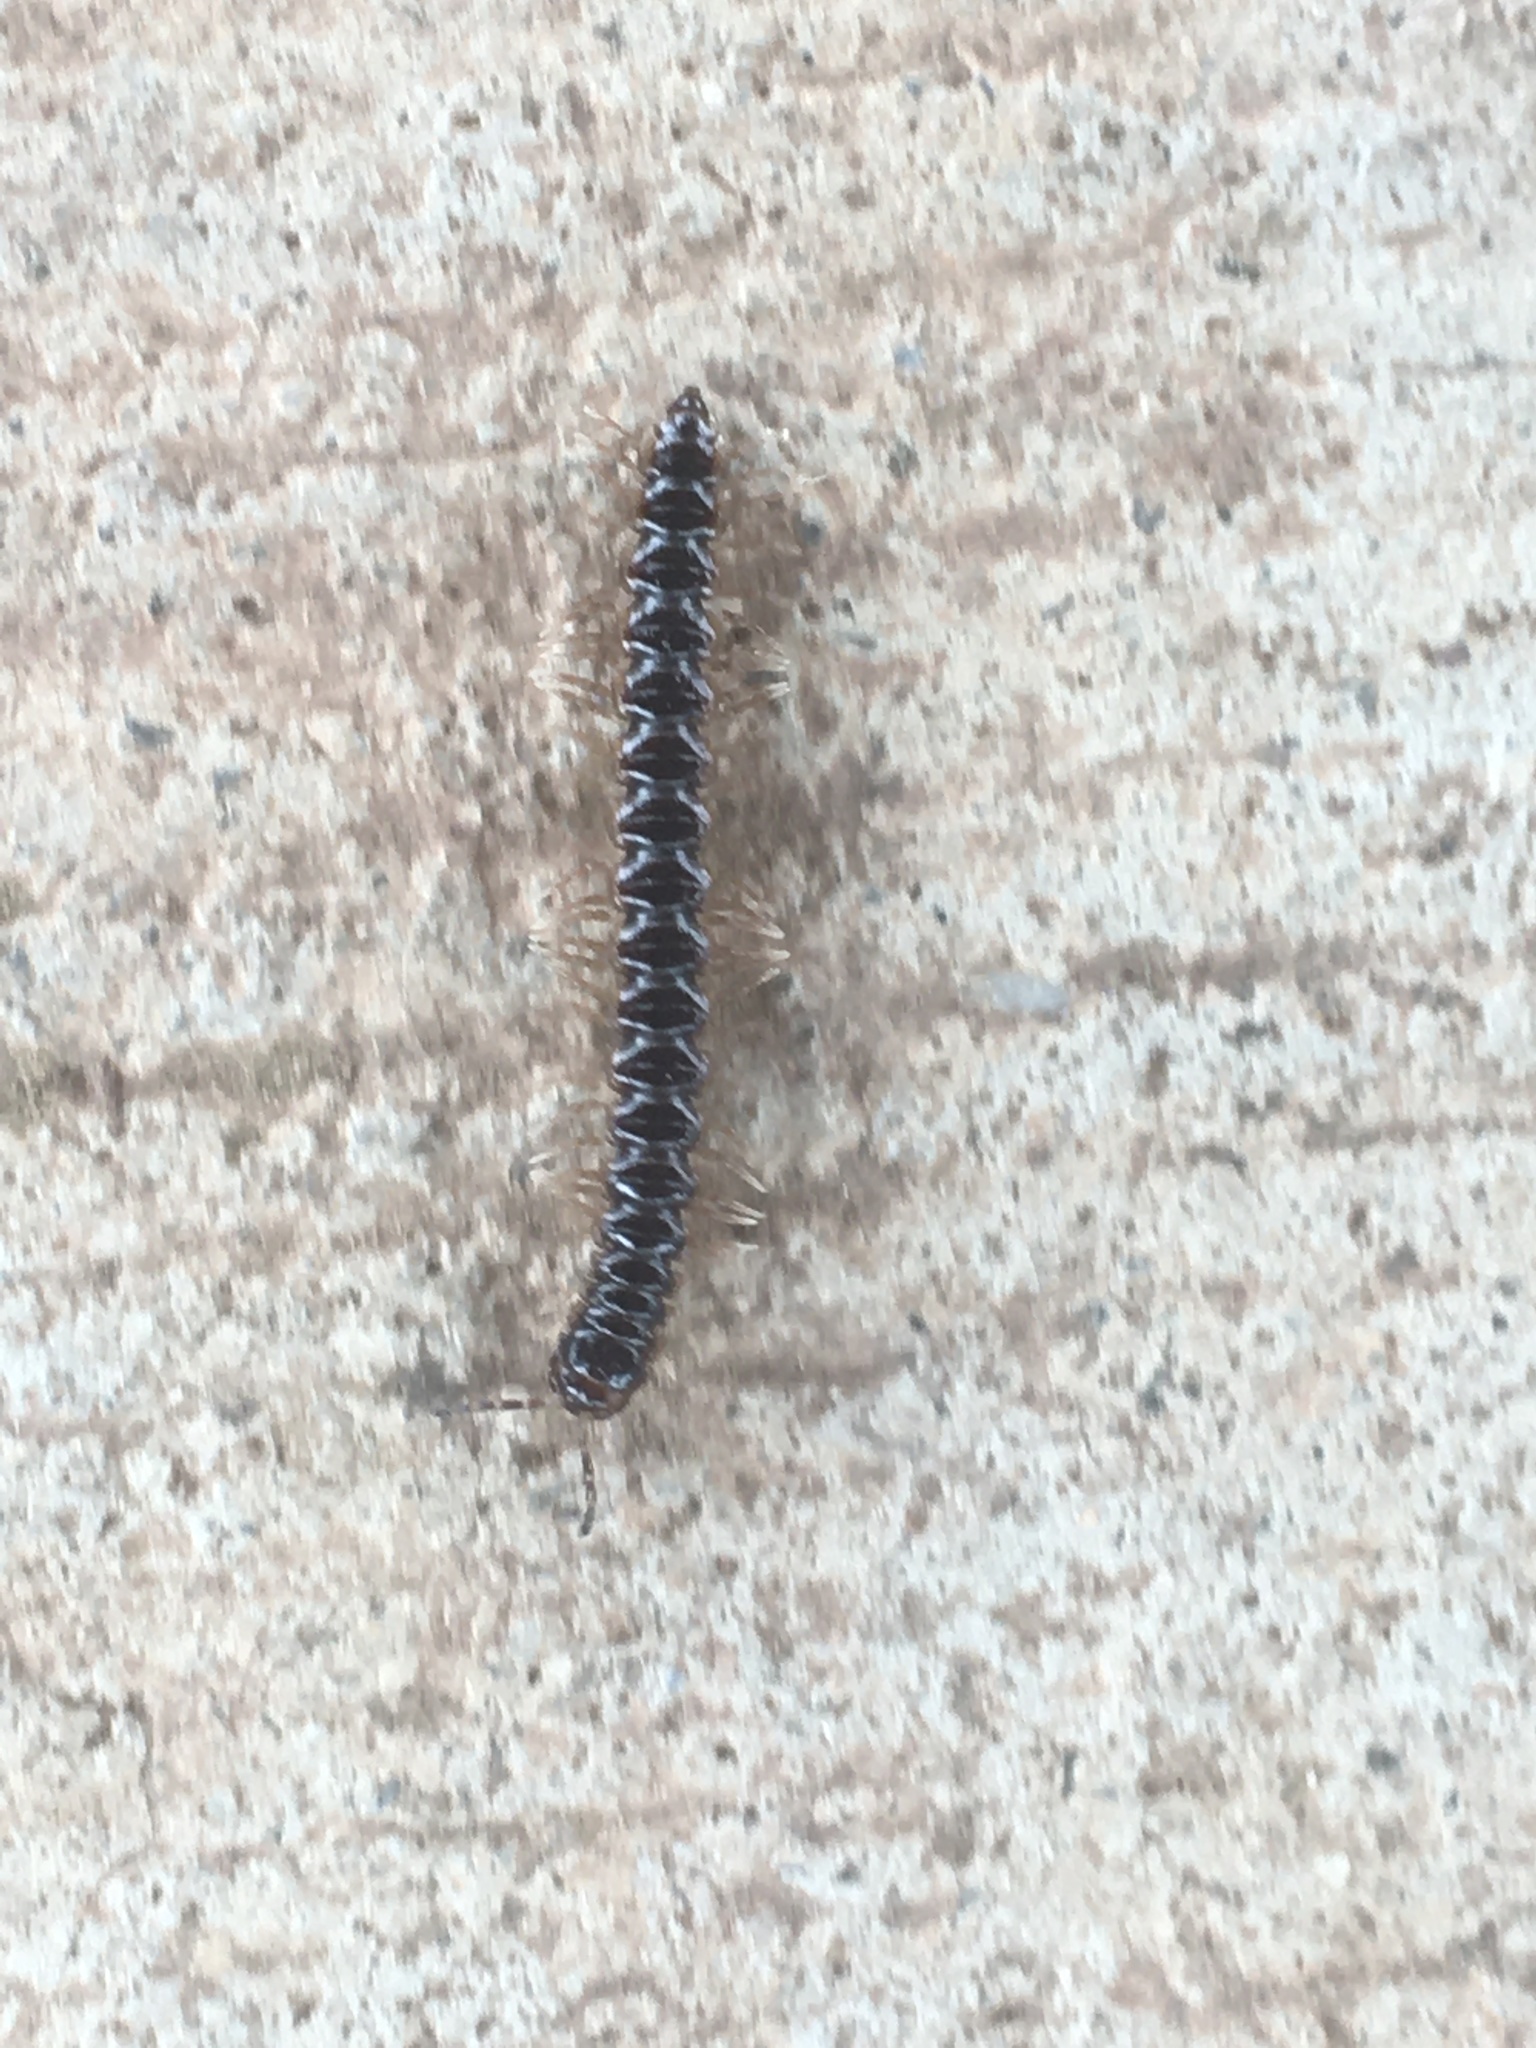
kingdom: Animalia
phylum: Arthropoda
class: Diplopoda
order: Polydesmida
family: Paradoxosomatidae
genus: Oxidus
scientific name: Oxidus gracilis
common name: Greenhouse millipede
